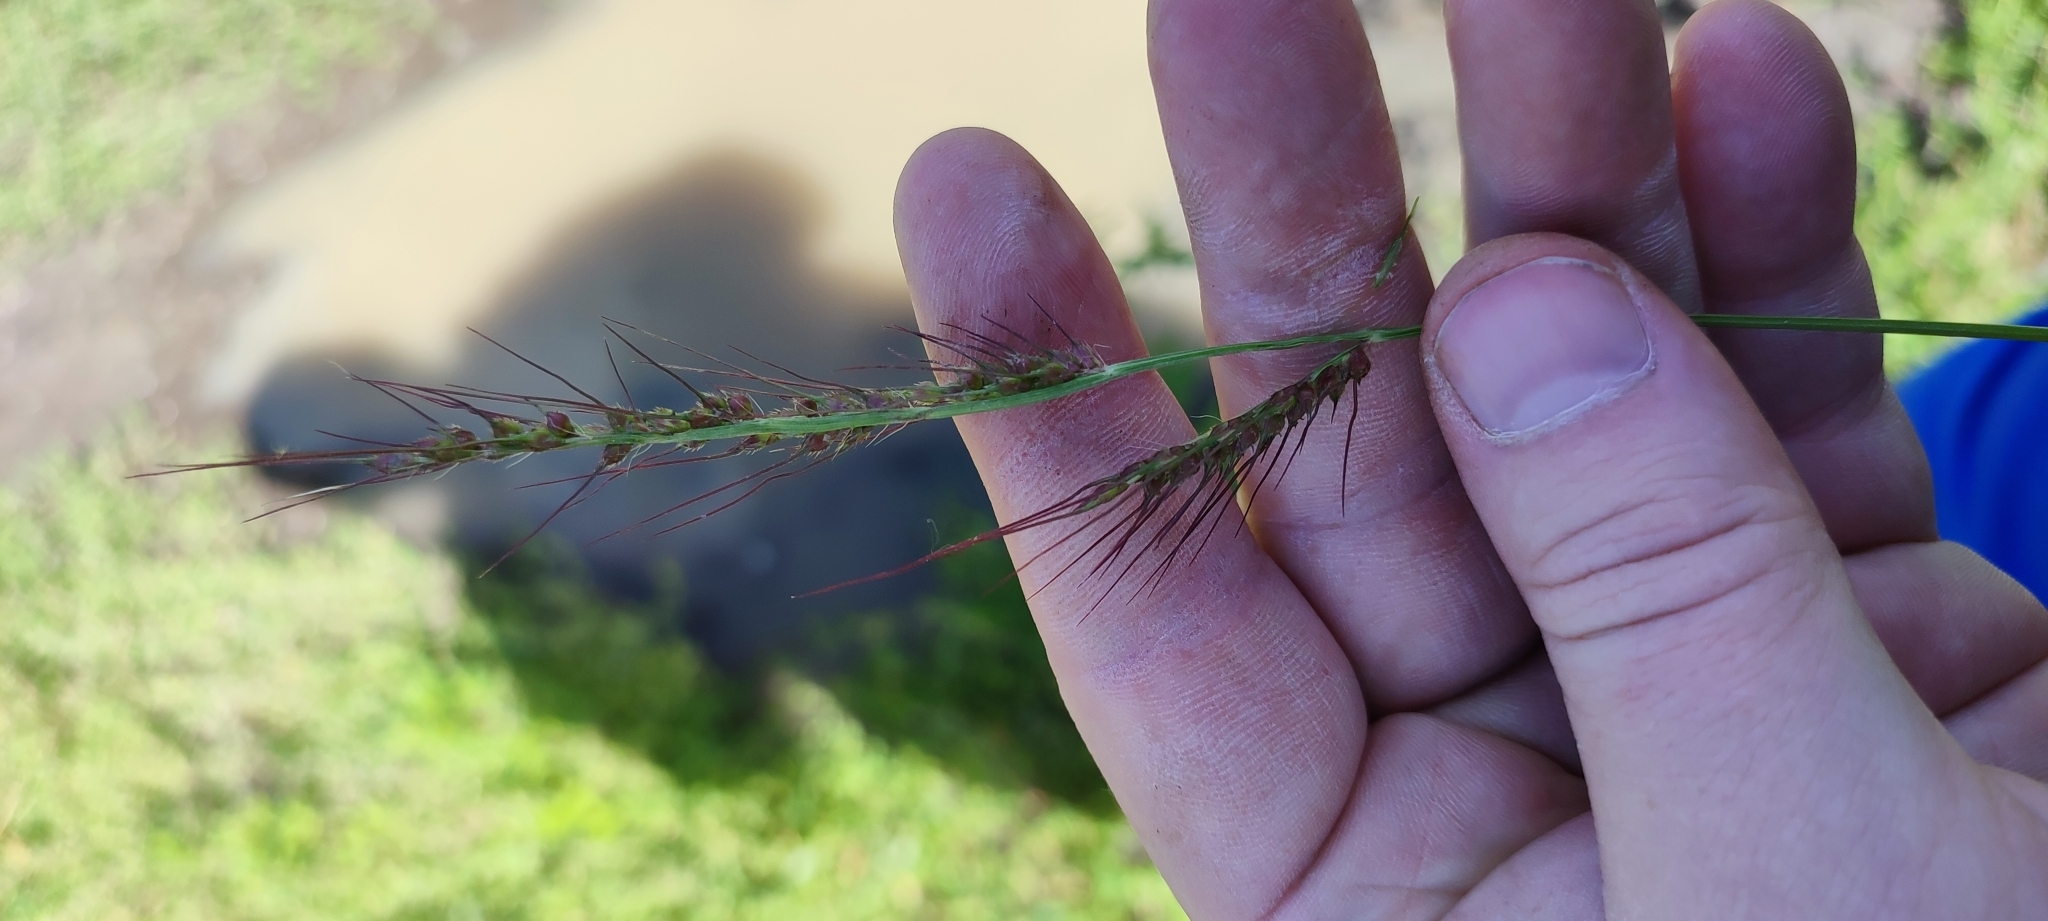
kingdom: Plantae
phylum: Tracheophyta
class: Liliopsida
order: Poales
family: Poaceae
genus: Echinochloa
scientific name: Echinochloa crus-galli
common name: Cockspur
